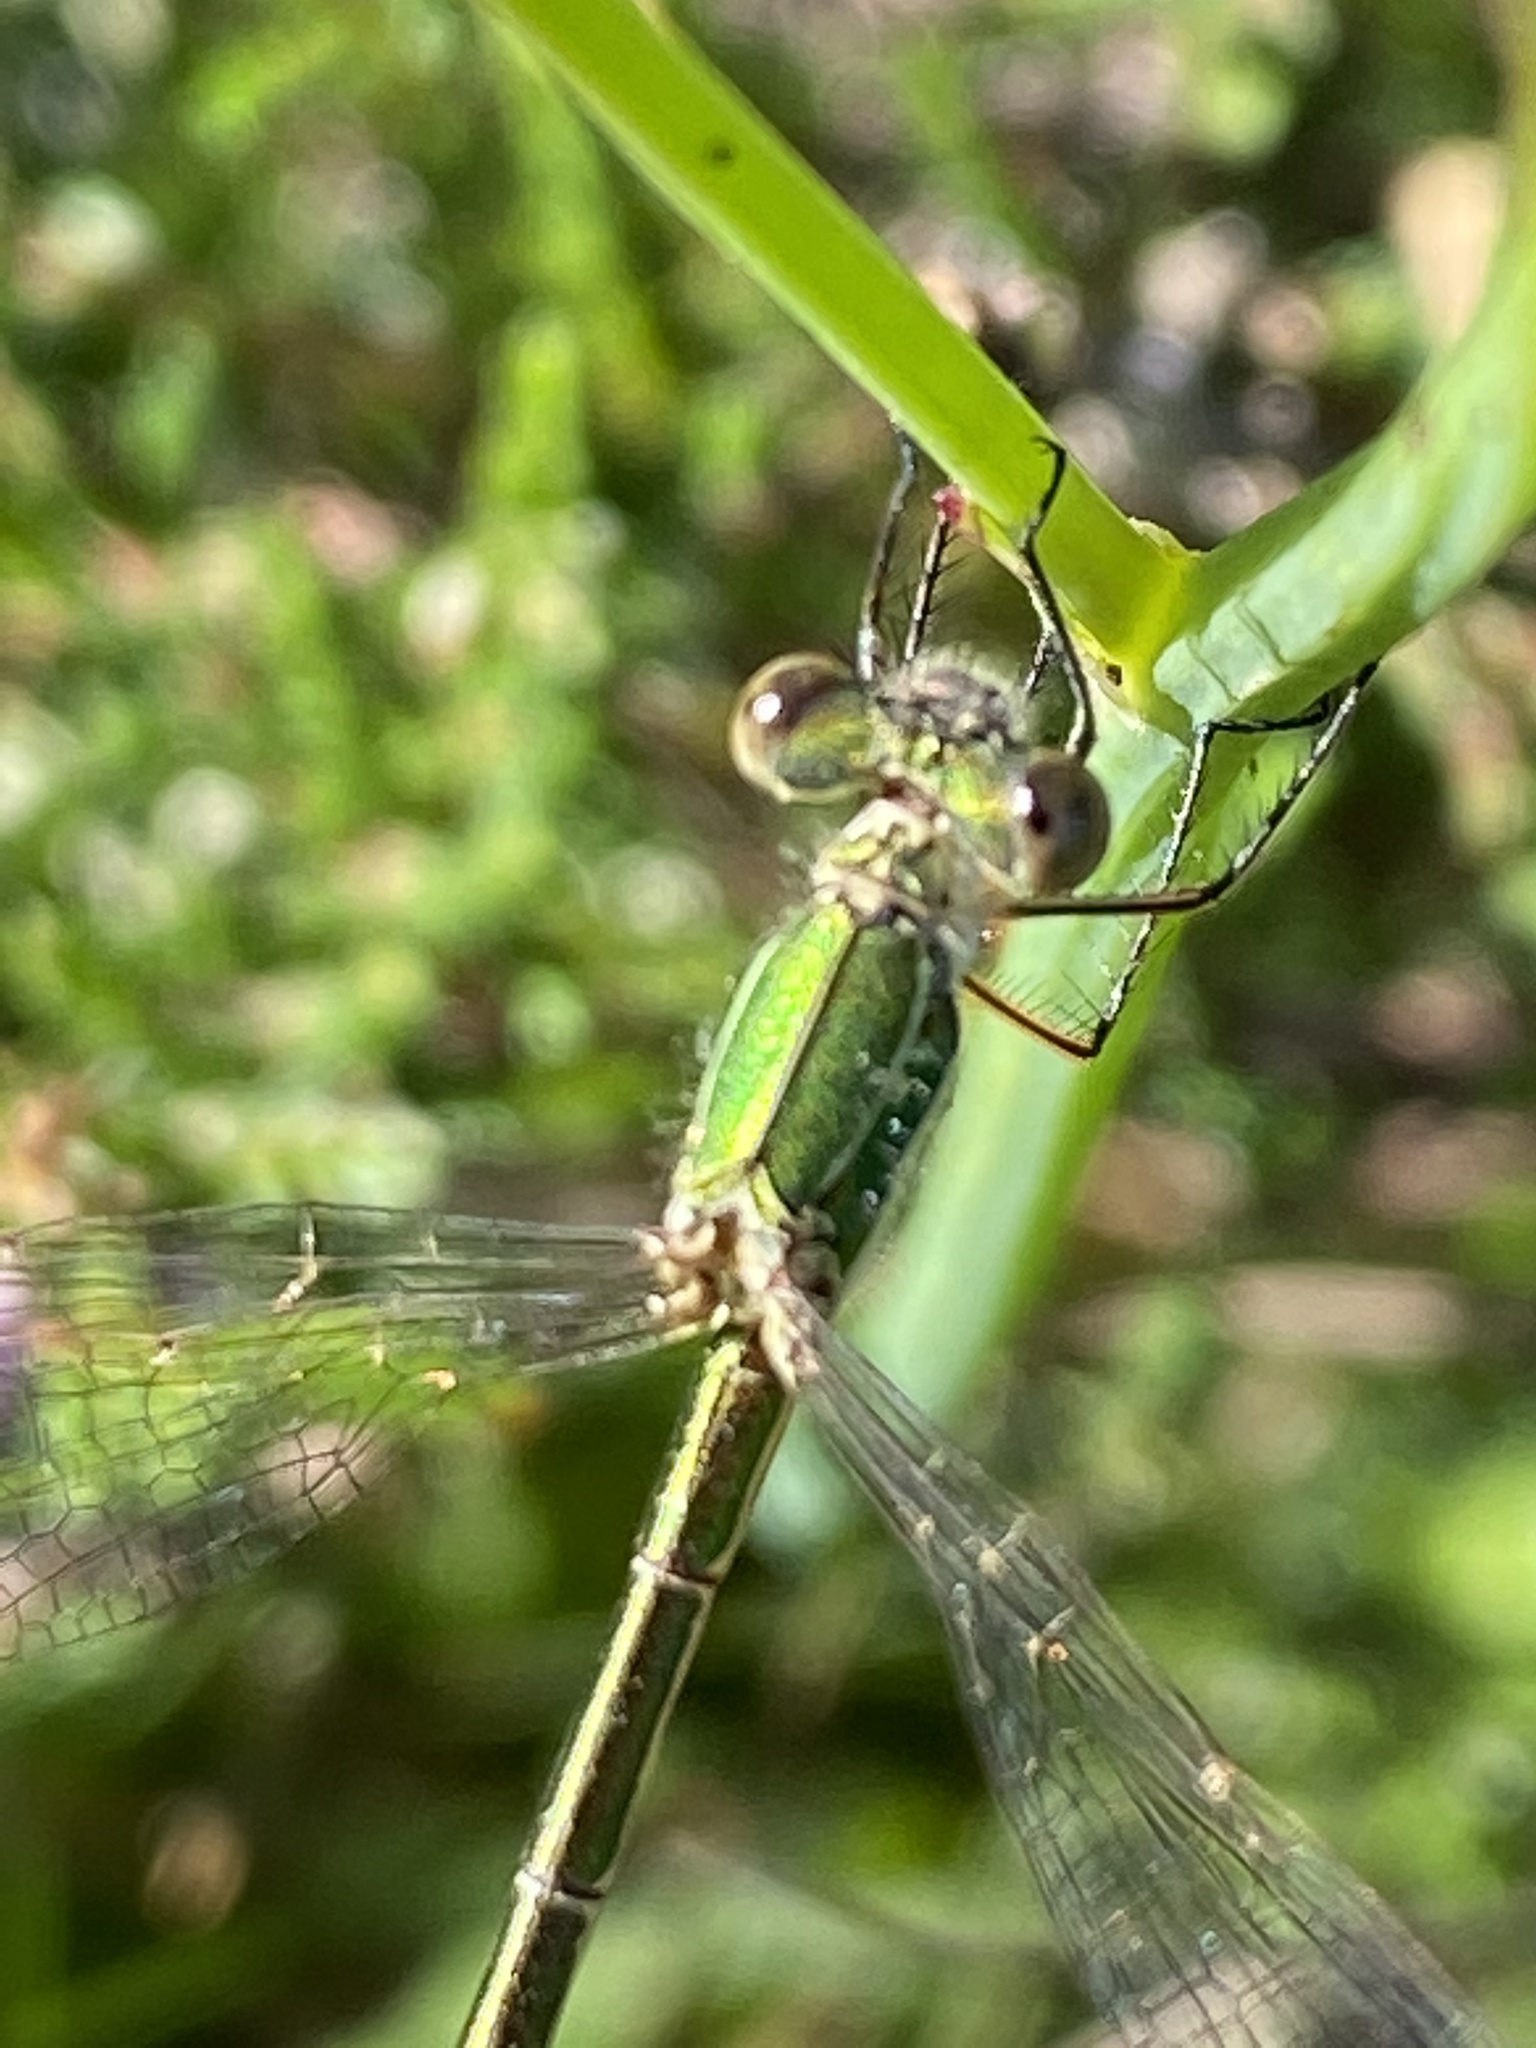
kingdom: Animalia
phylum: Arthropoda
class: Insecta
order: Odonata
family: Lestidae
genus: Lestes
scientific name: Lestes virens
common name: Small emerald spreadwing
